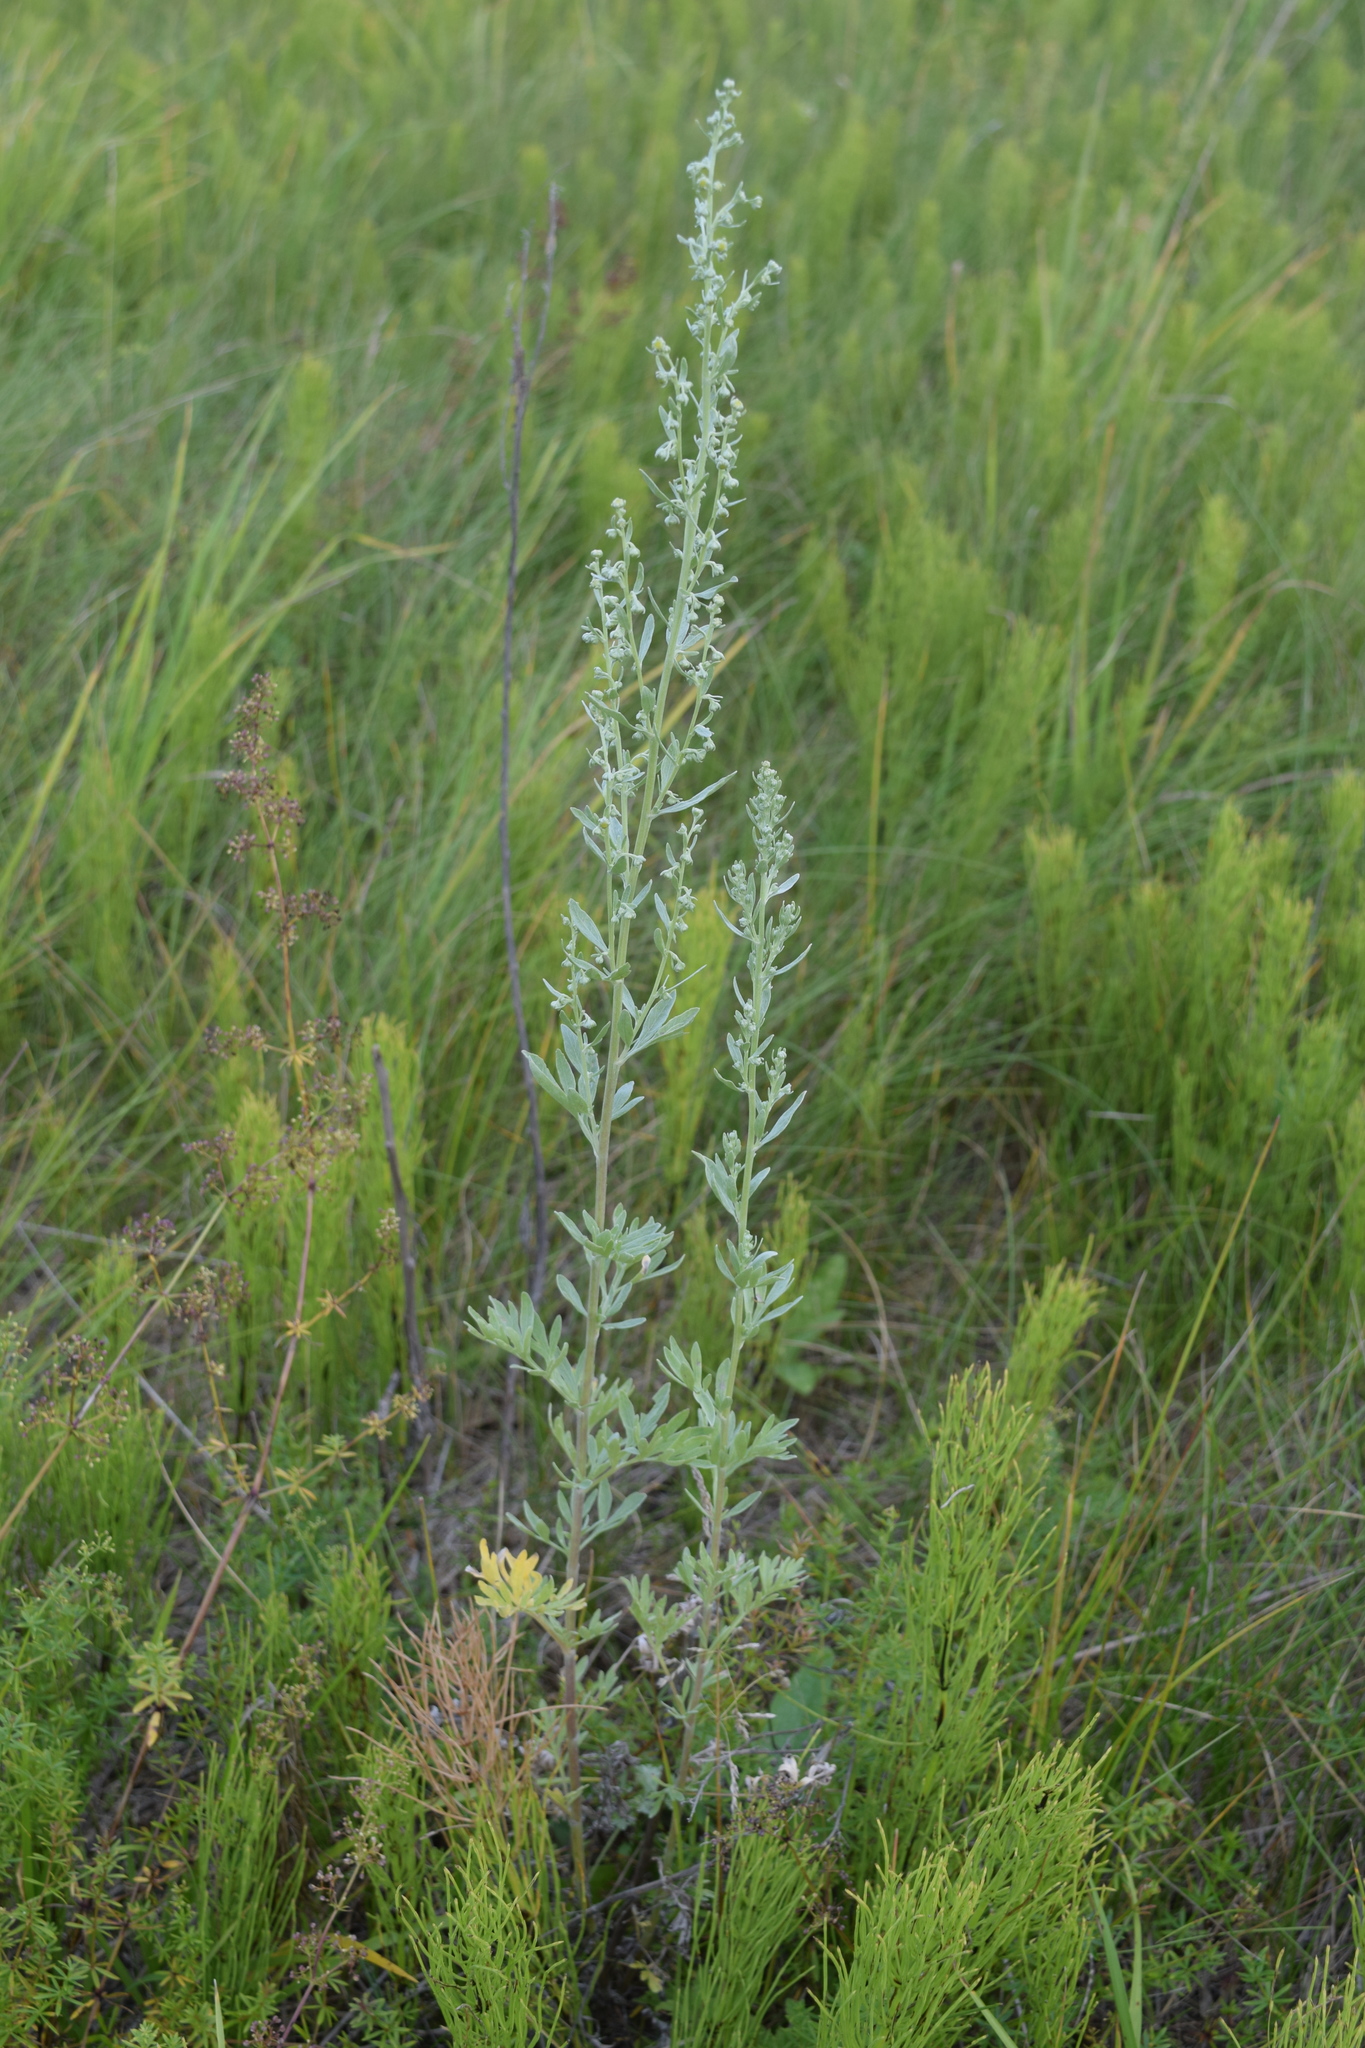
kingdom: Plantae
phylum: Tracheophyta
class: Magnoliopsida
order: Asterales
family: Asteraceae
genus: Artemisia
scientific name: Artemisia absinthium
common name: Wormwood
